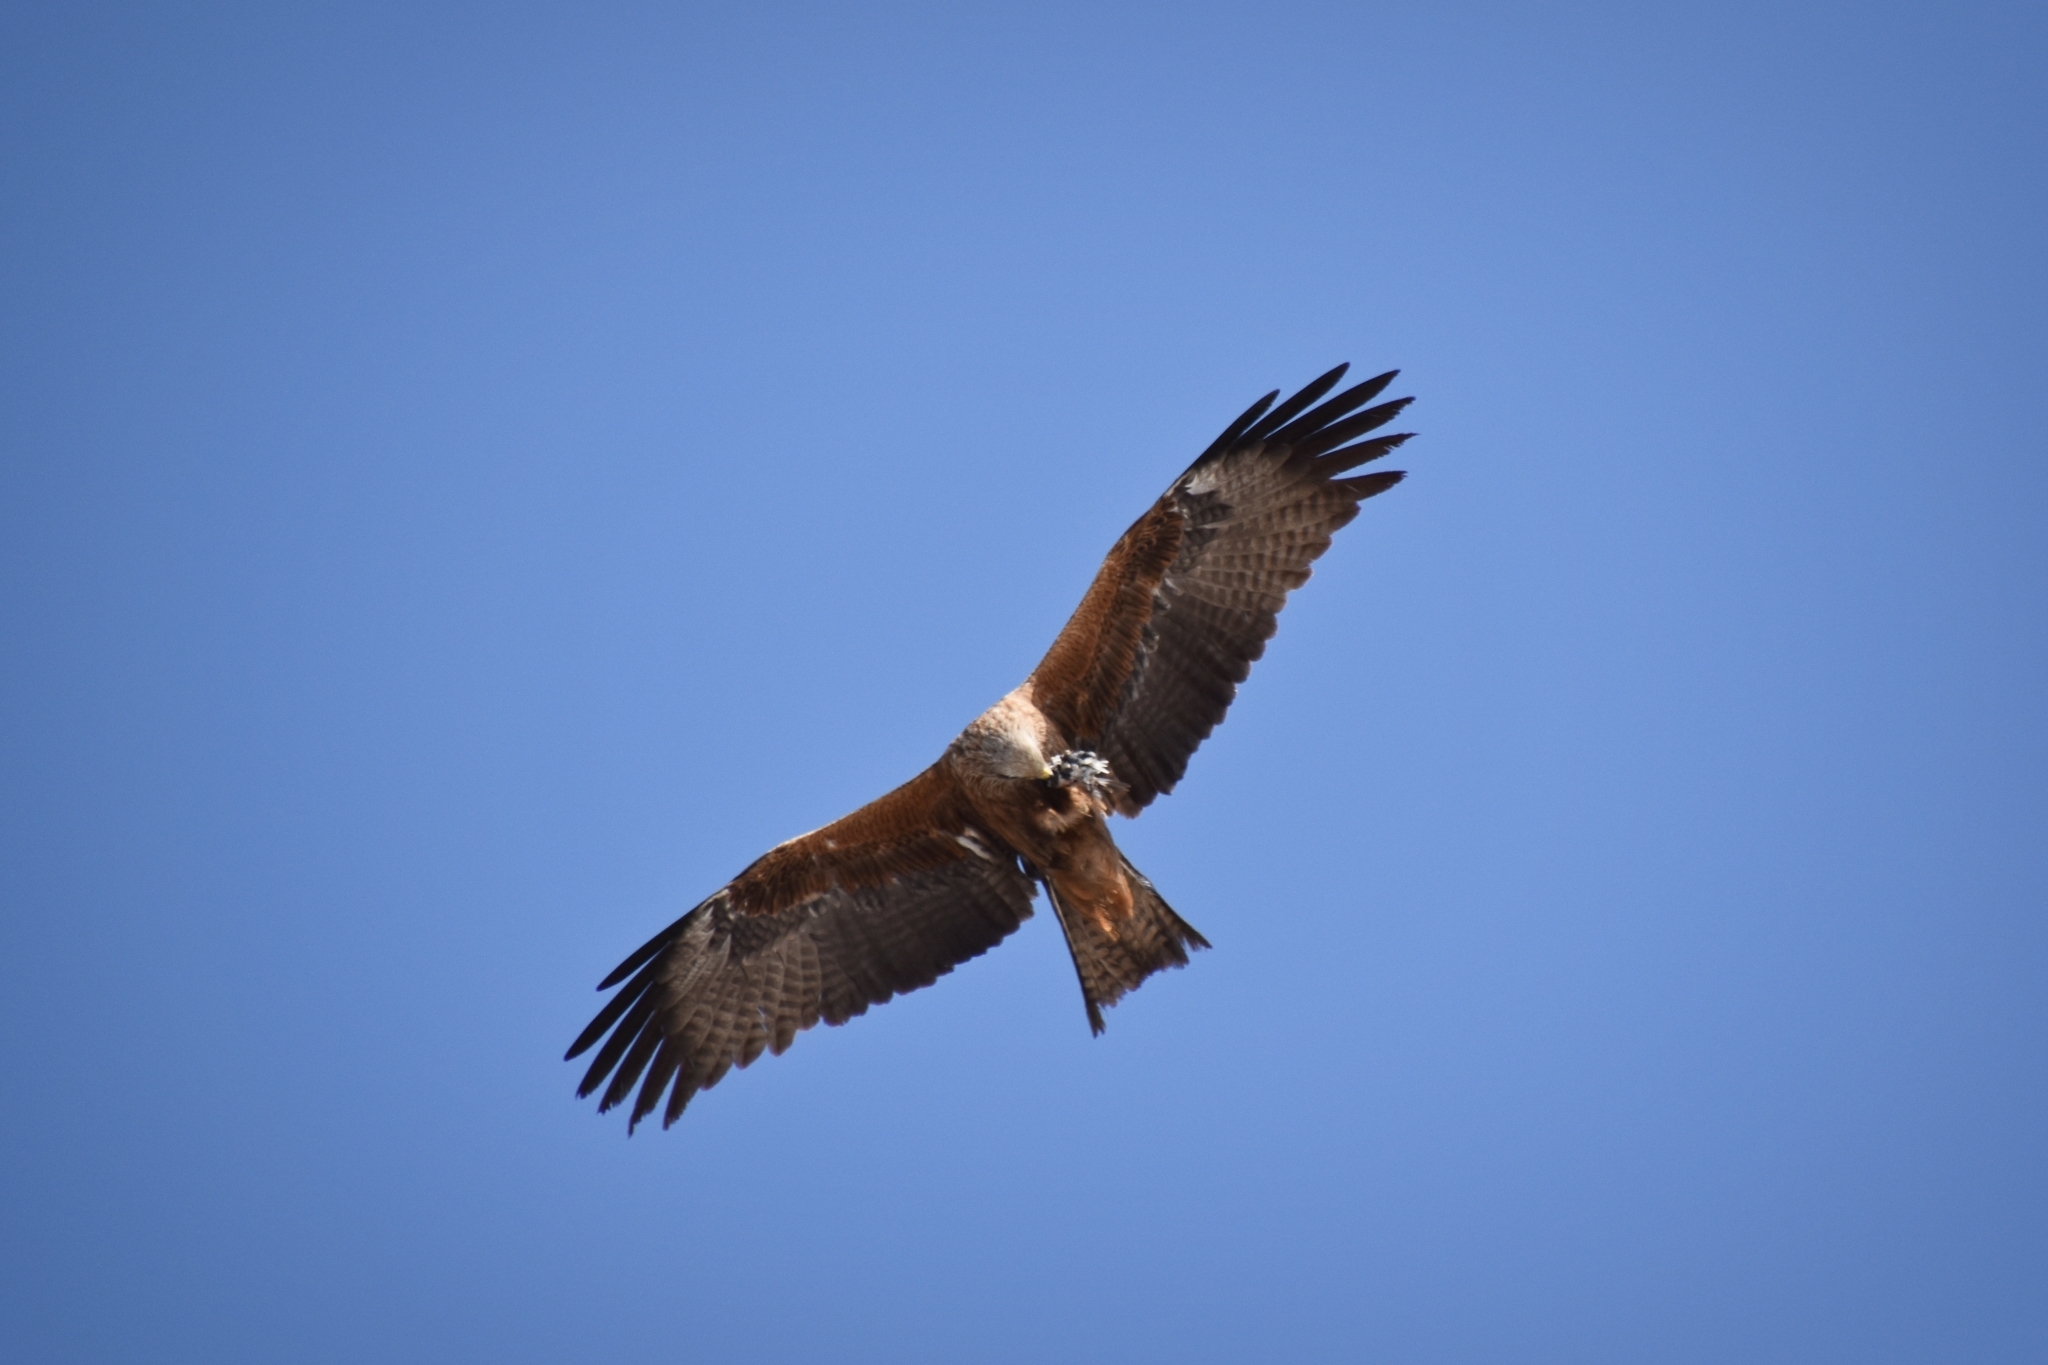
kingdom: Animalia
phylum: Chordata
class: Aves
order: Accipitriformes
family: Accipitridae
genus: Milvus
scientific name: Milvus migrans
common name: Black kite
